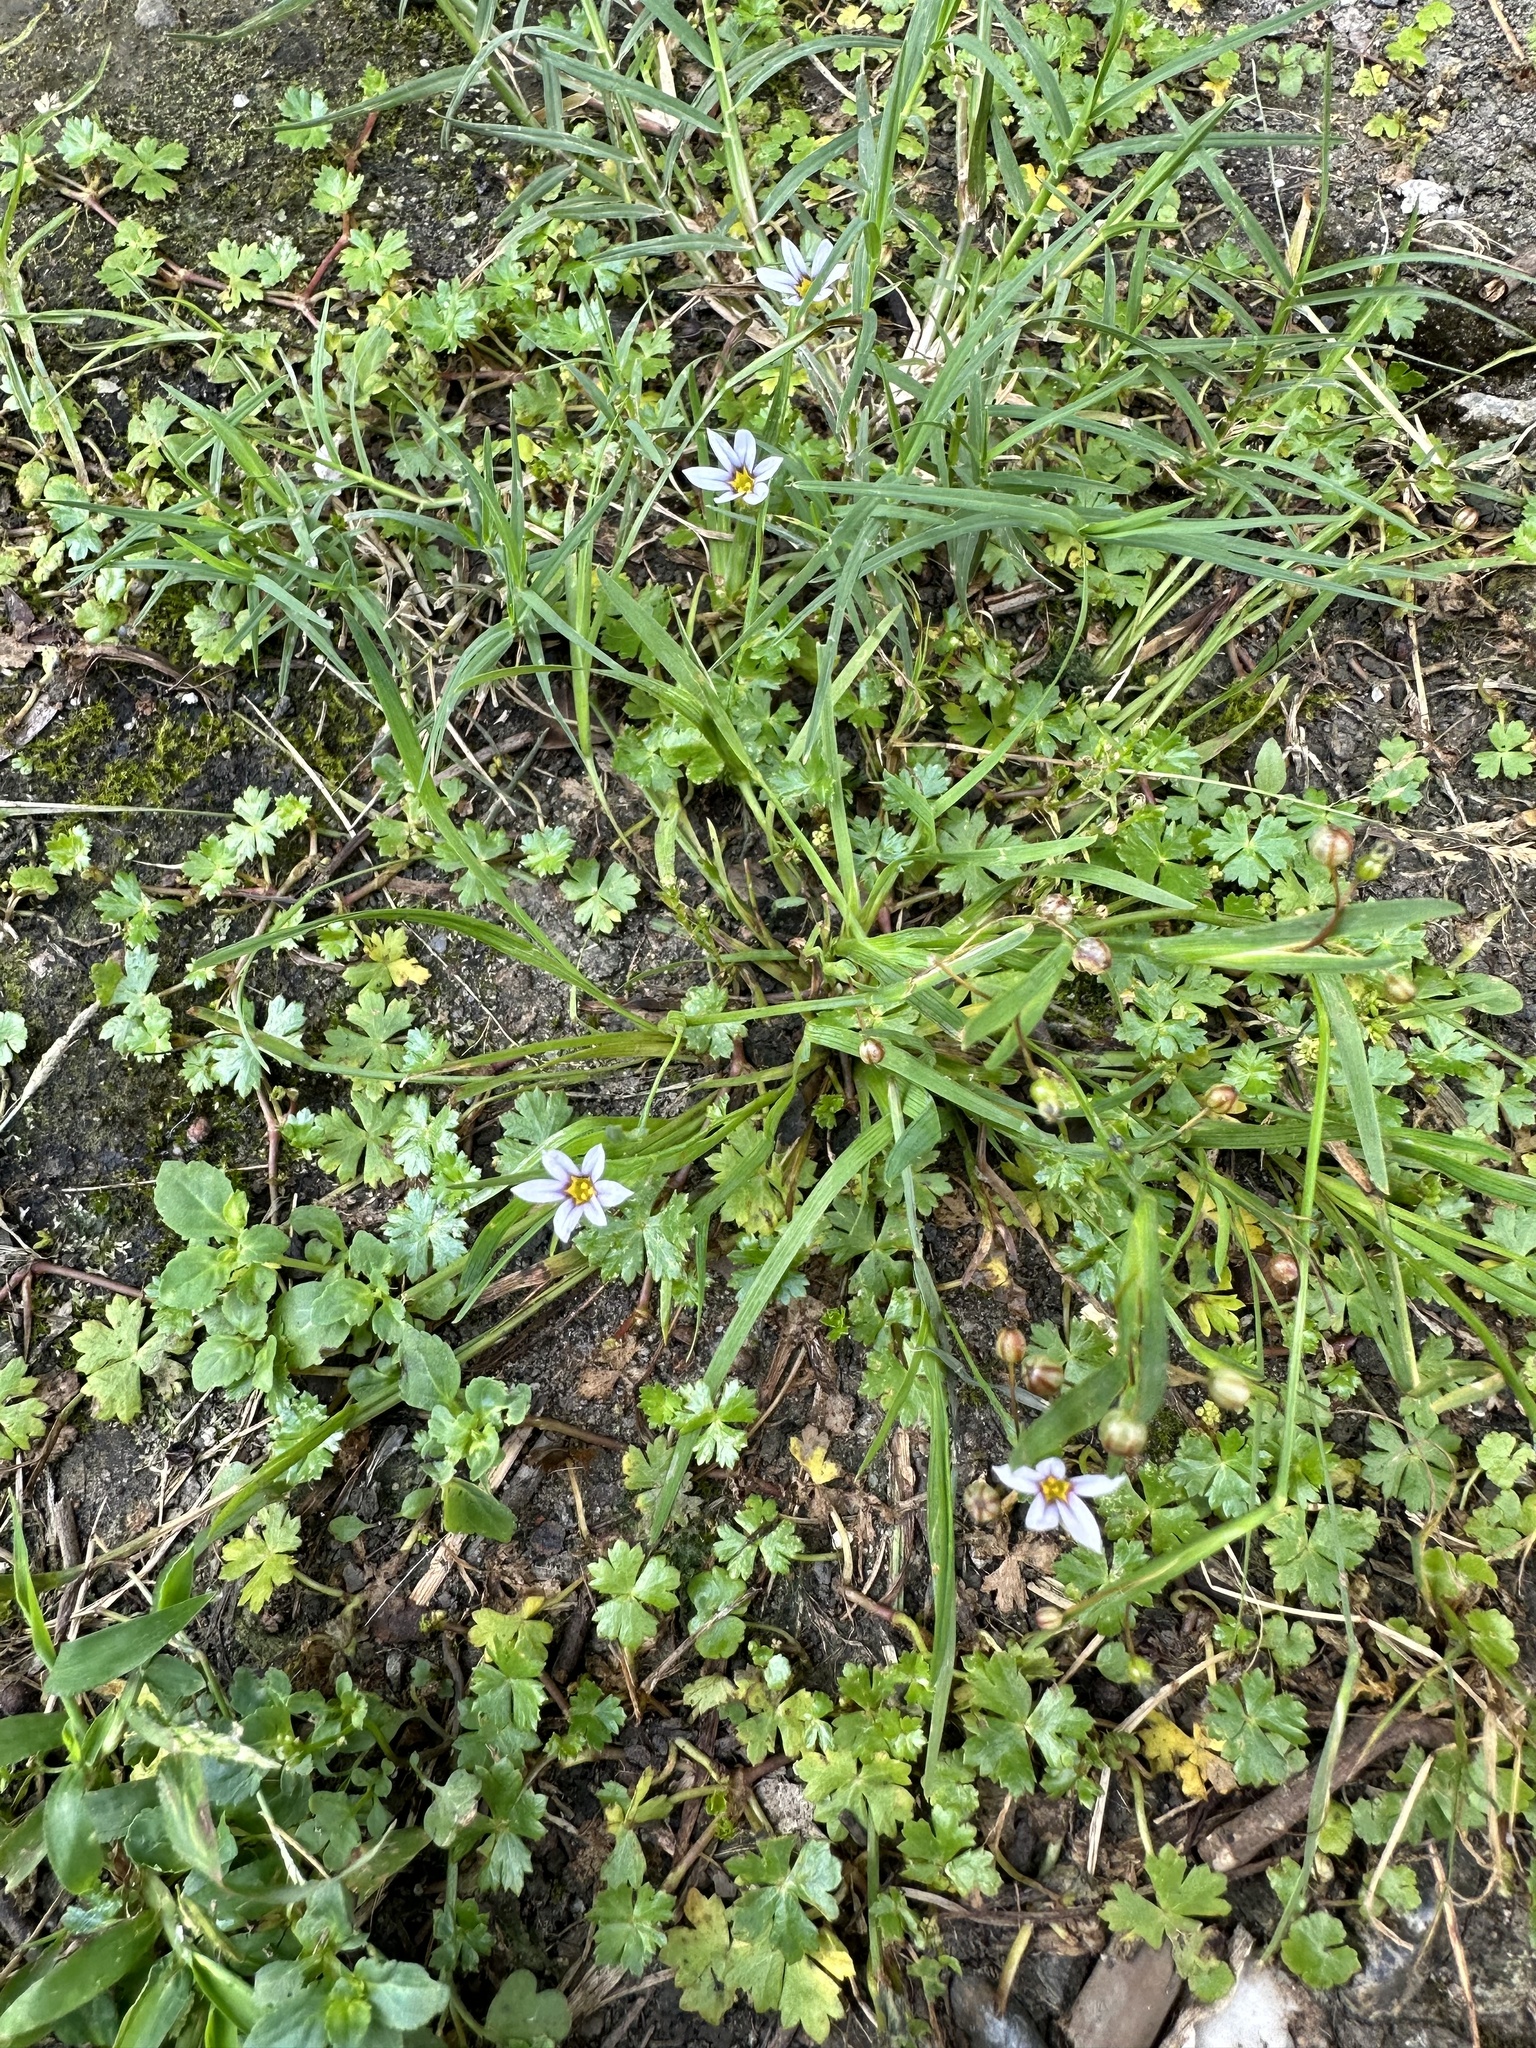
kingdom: Plantae
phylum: Tracheophyta
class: Liliopsida
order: Asparagales
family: Iridaceae
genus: Sisyrinchium
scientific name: Sisyrinchium micranthum
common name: Bermuda pigroot
